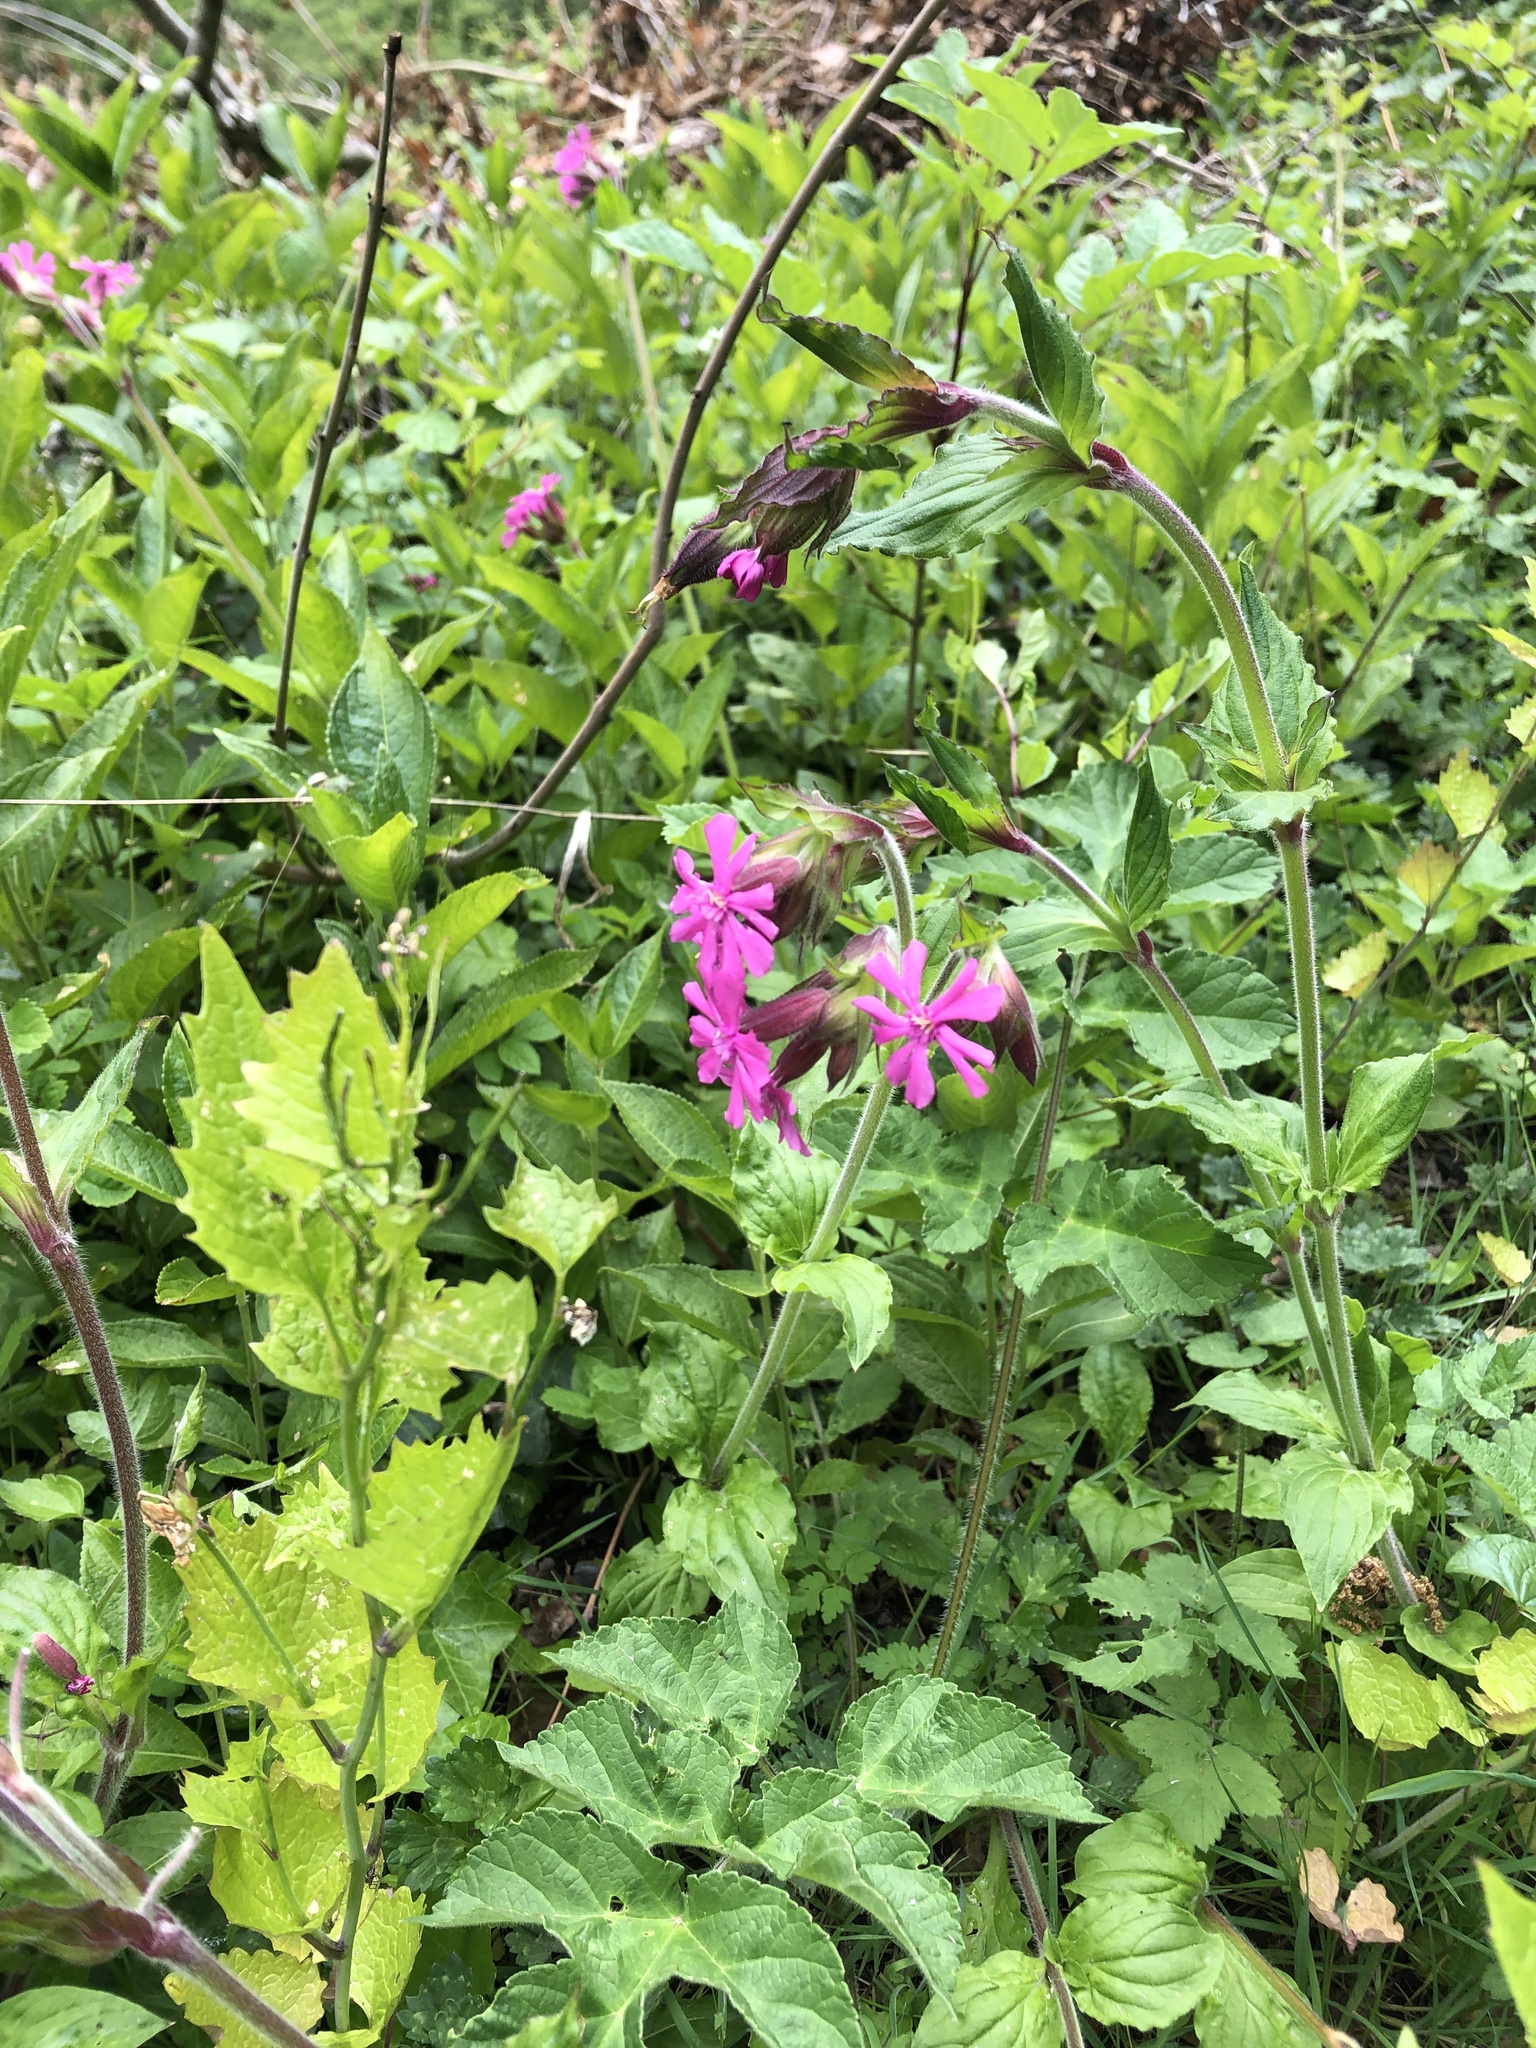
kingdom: Plantae
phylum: Tracheophyta
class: Magnoliopsida
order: Caryophyllales
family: Caryophyllaceae
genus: Silene
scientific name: Silene dioica
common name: Red campion
